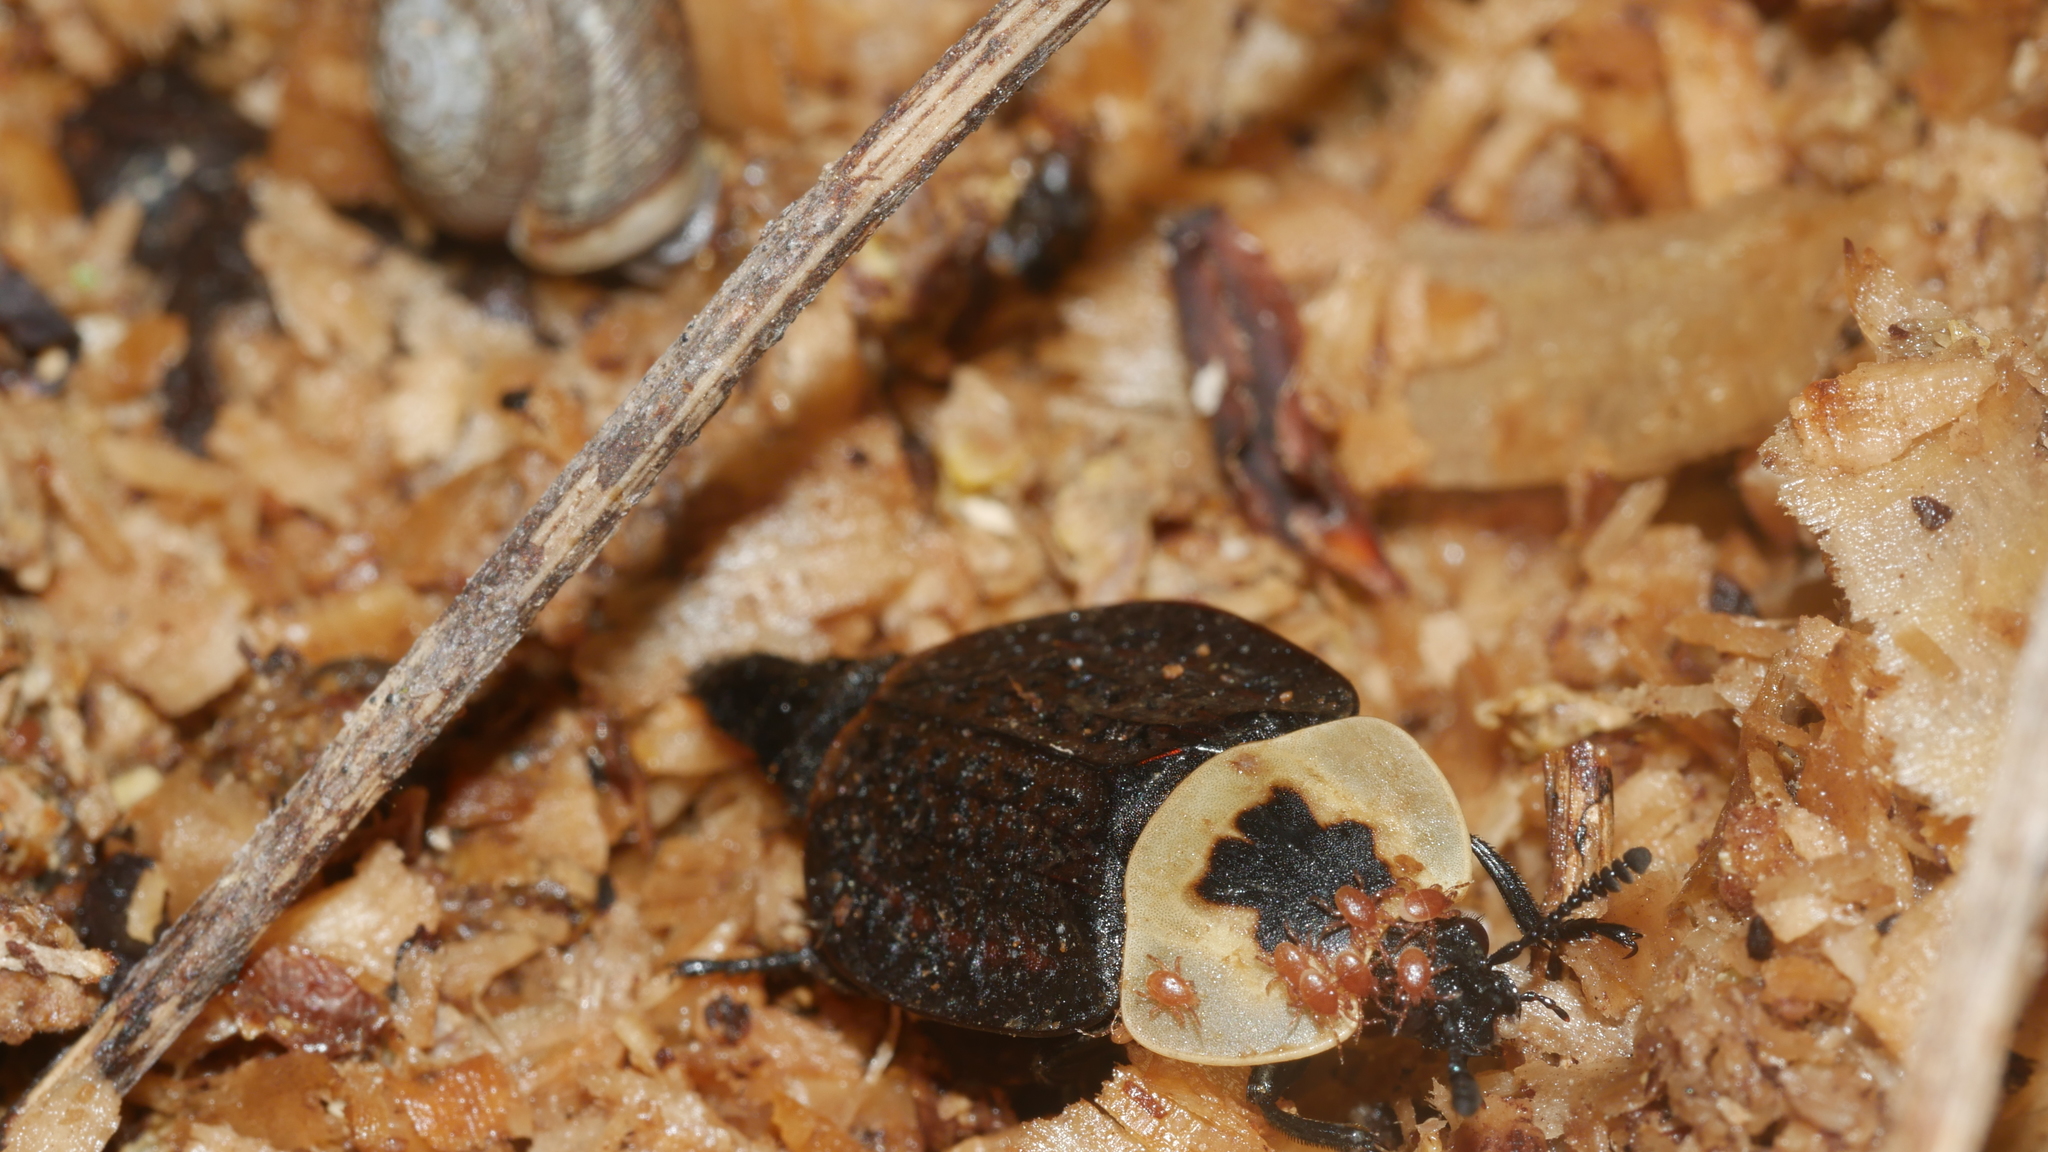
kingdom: Animalia
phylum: Arthropoda
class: Insecta
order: Coleoptera
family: Staphylinidae
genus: Necrophila
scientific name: Necrophila americana
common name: American carrion beetle
